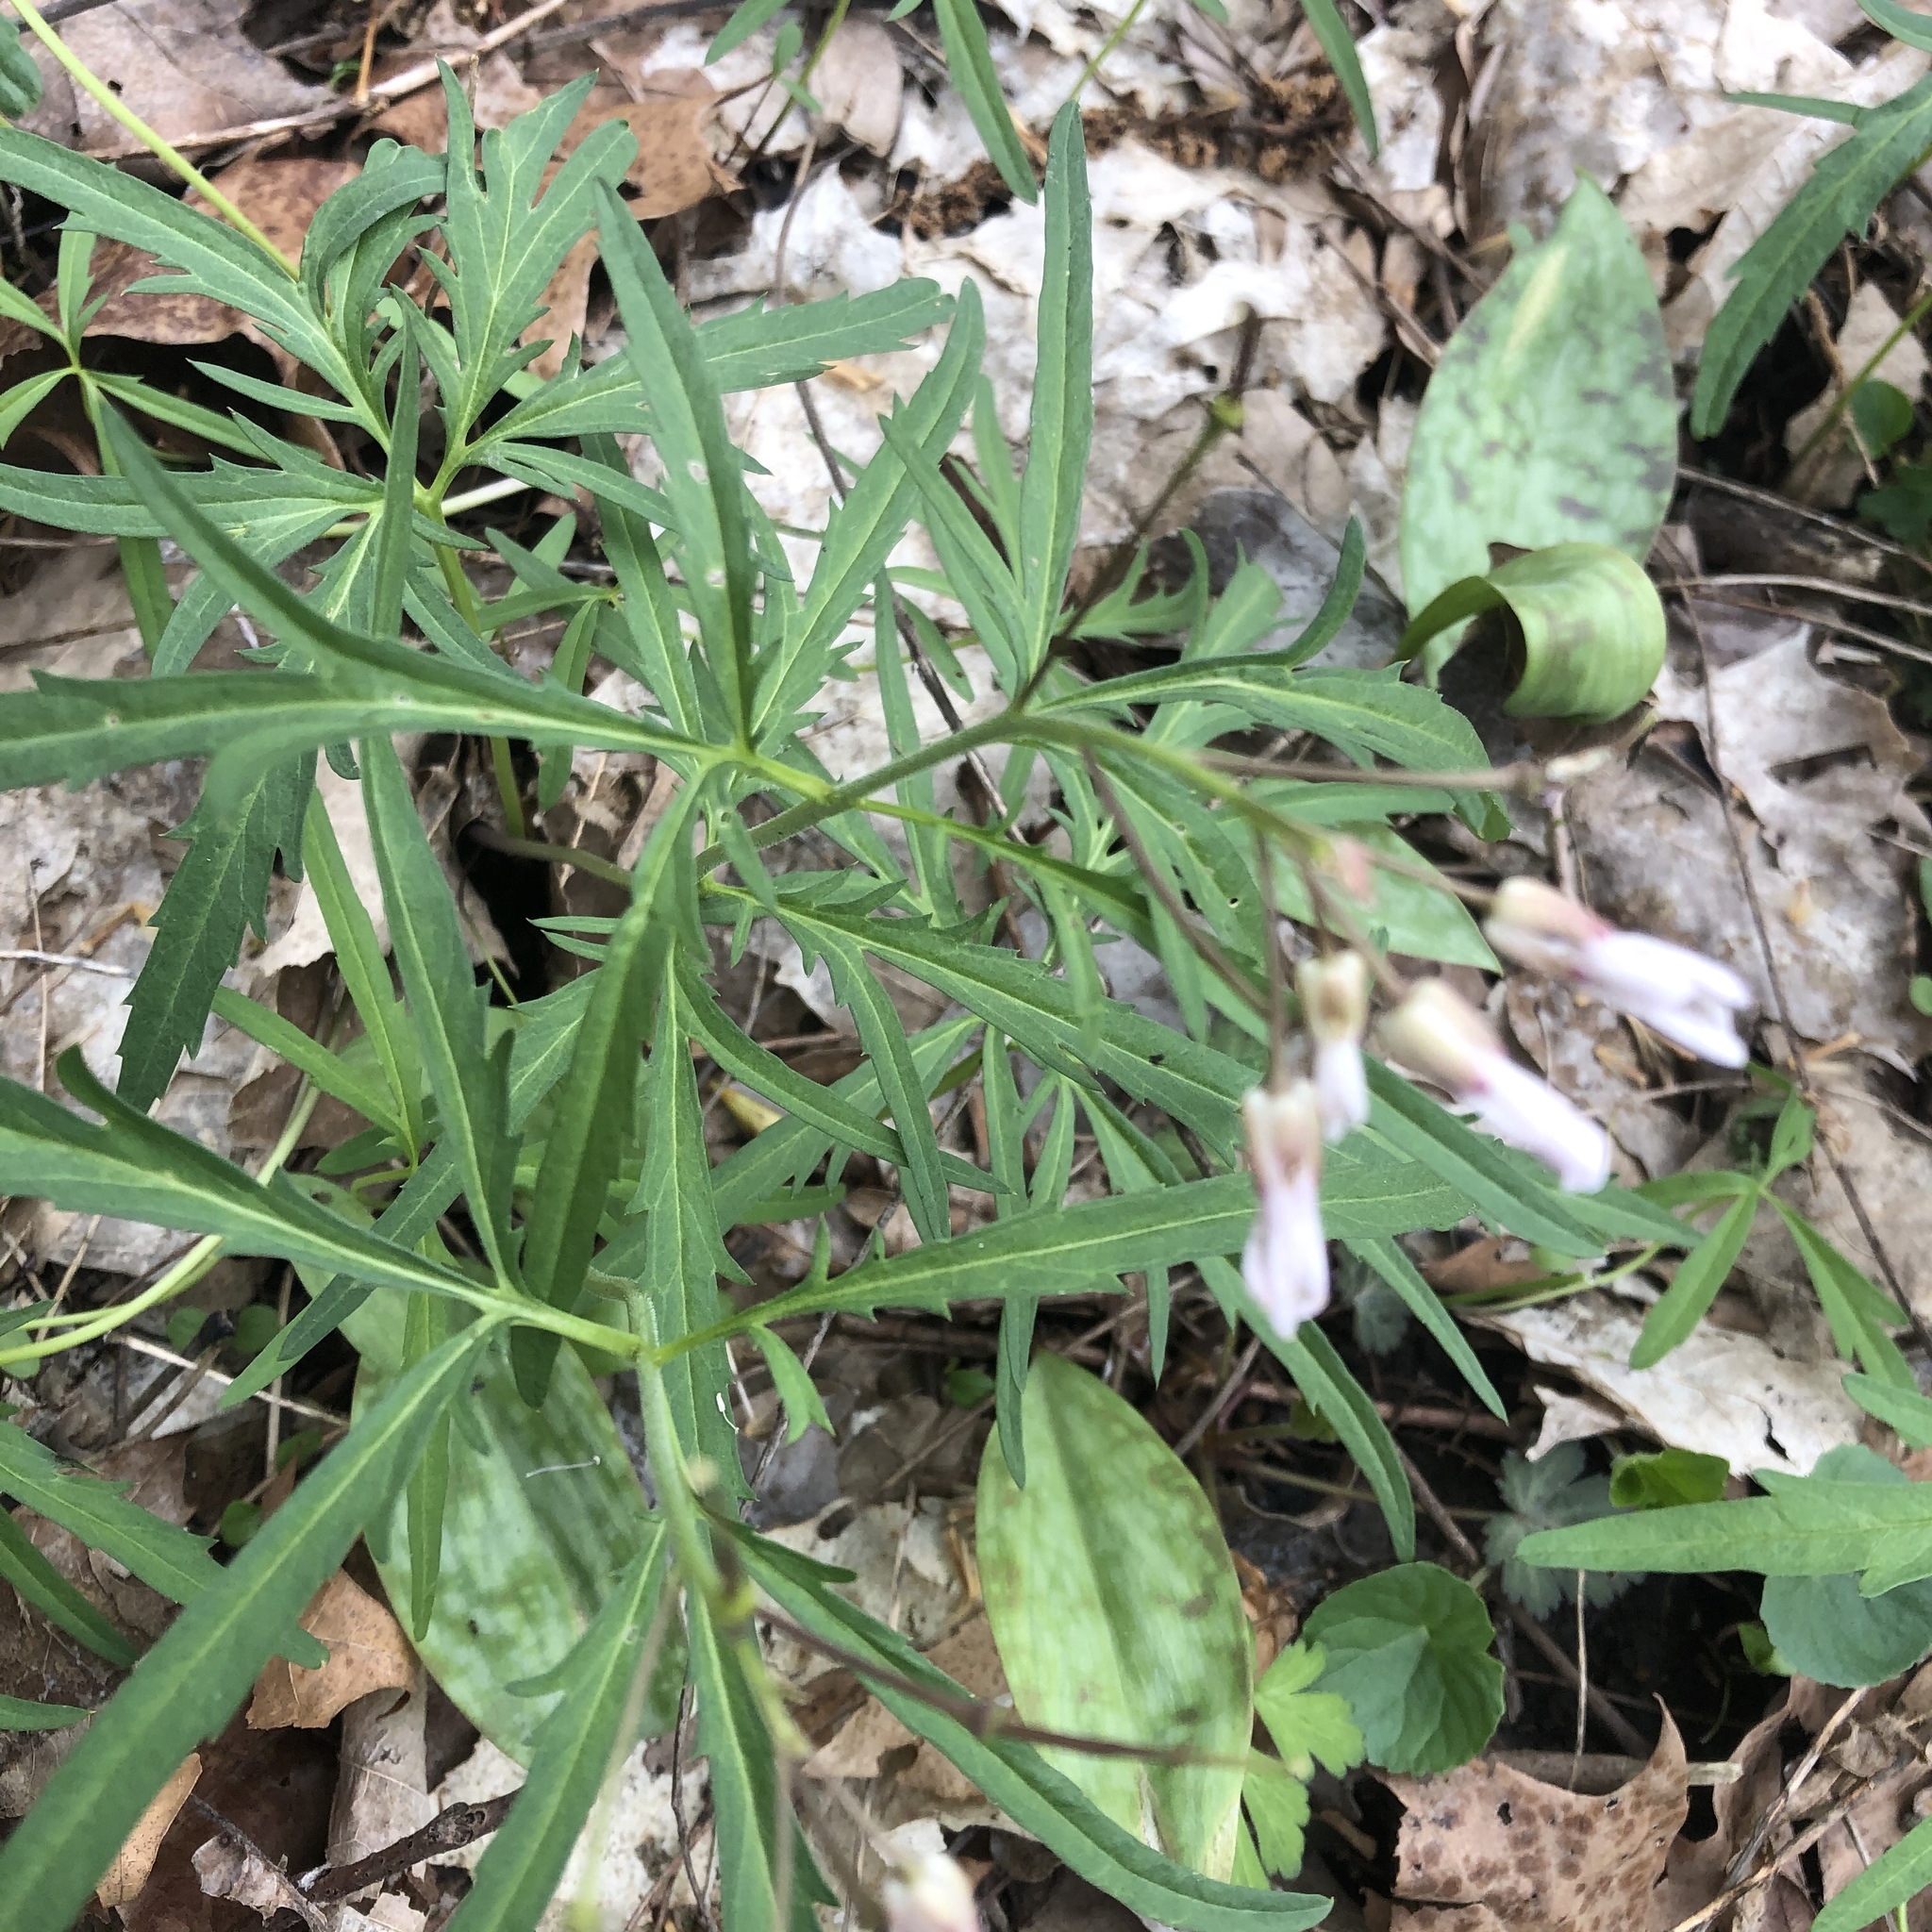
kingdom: Plantae
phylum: Tracheophyta
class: Magnoliopsida
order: Brassicales
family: Brassicaceae
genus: Cardamine
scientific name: Cardamine concatenata
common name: Cut-leaf toothcup
